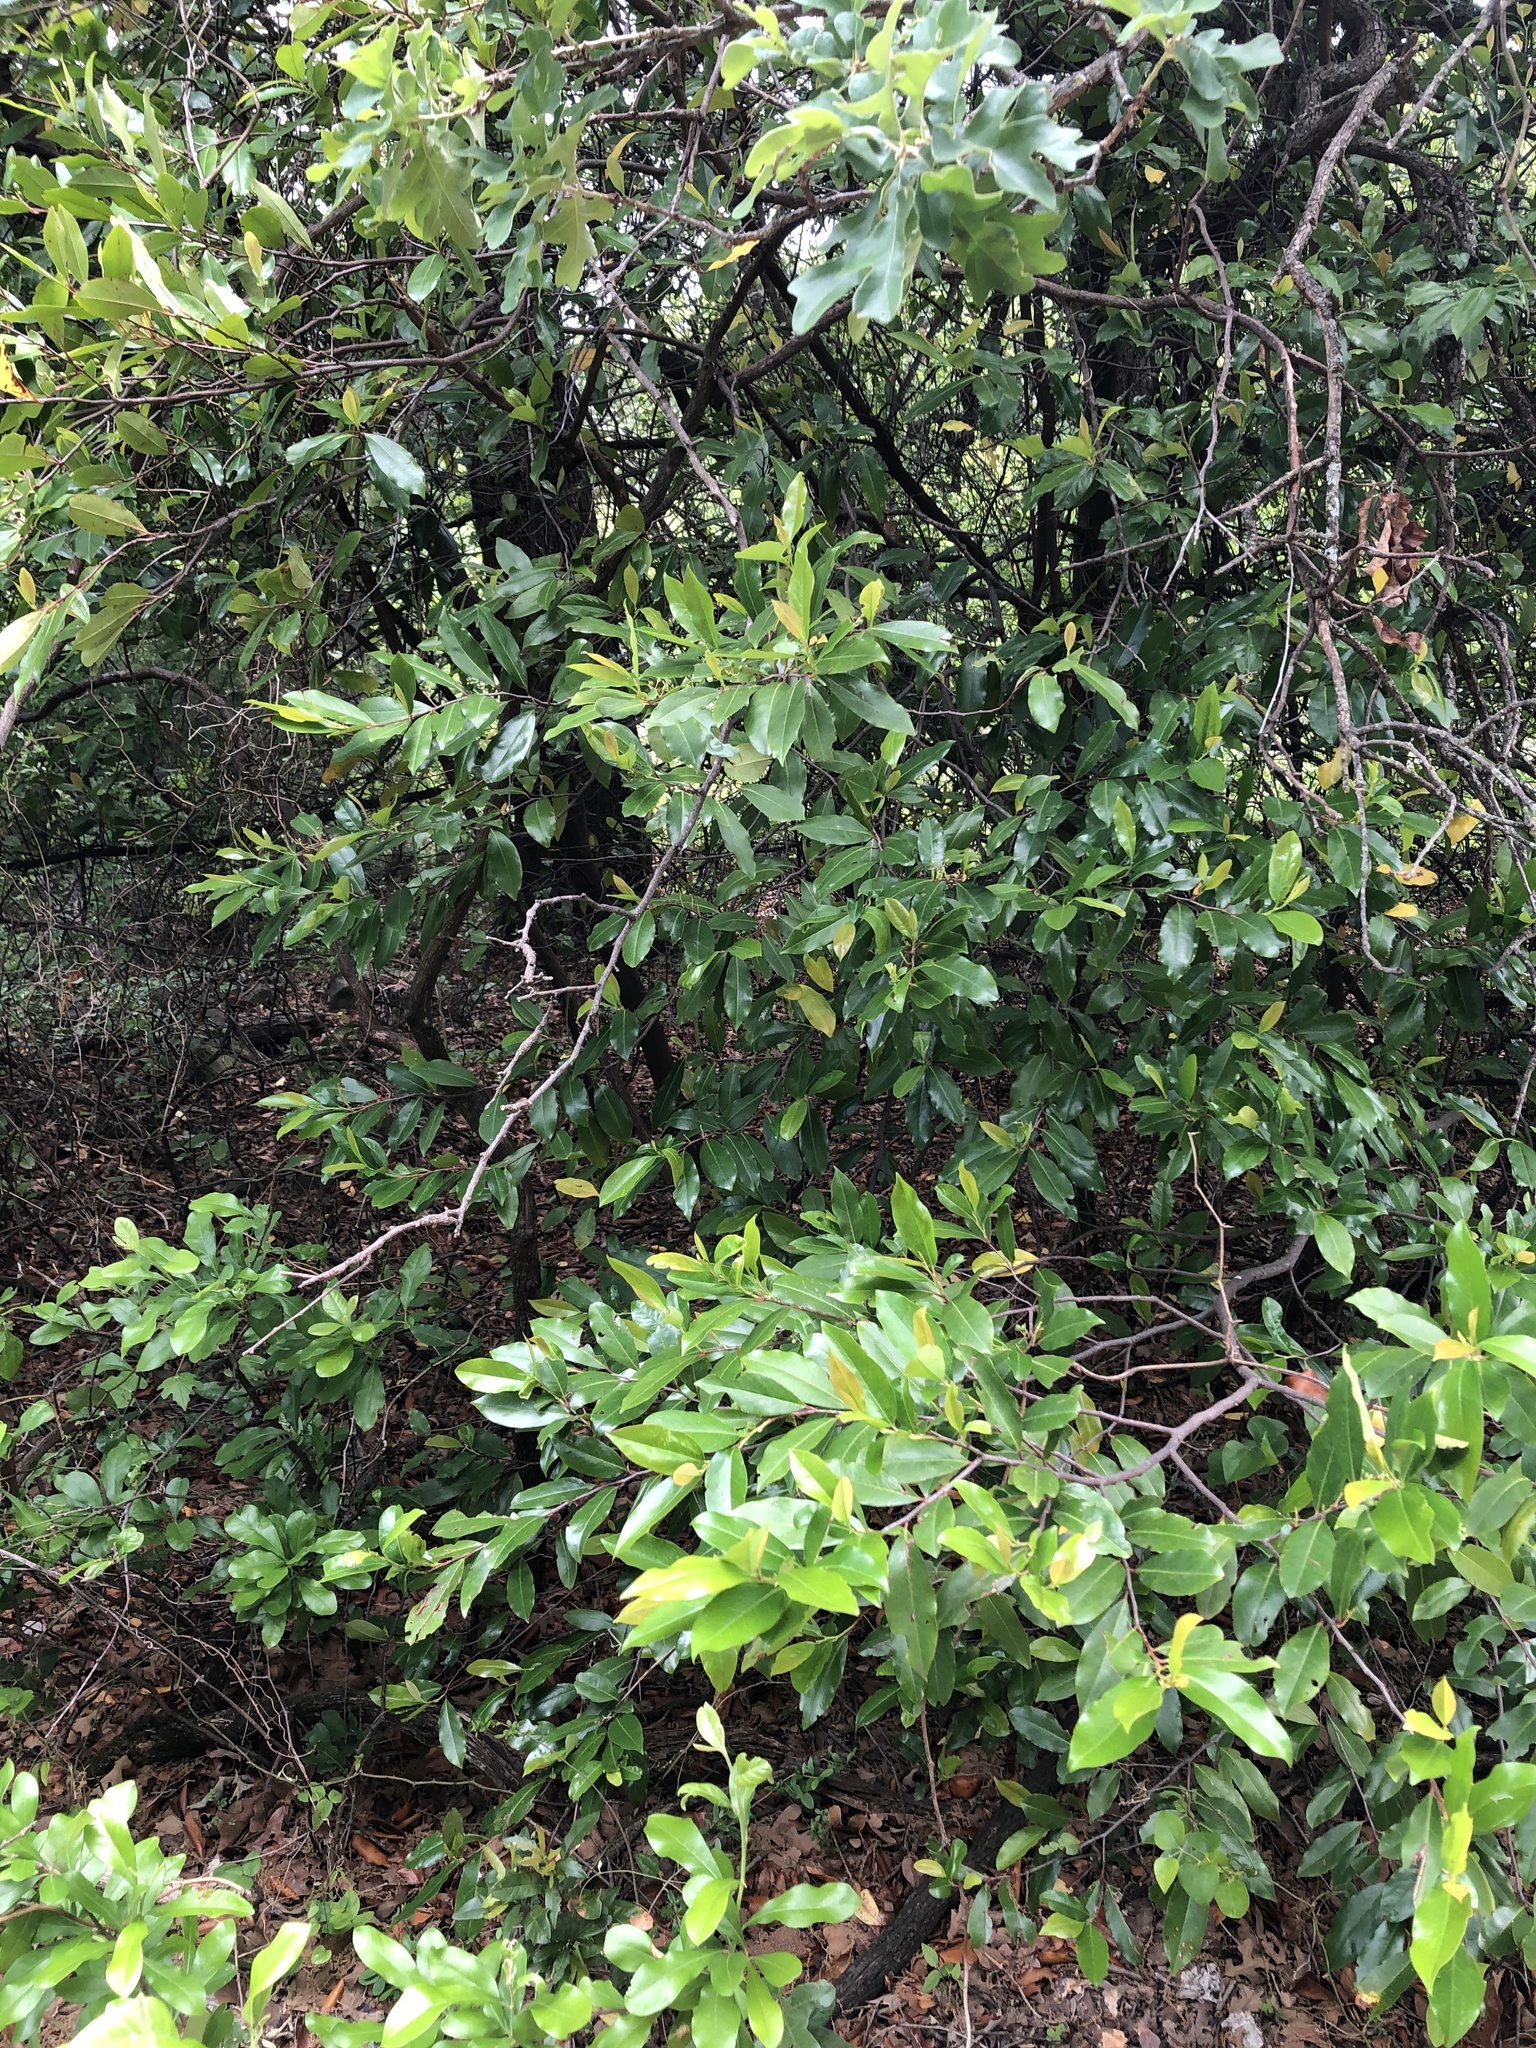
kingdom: Plantae
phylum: Tracheophyta
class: Magnoliopsida
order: Rosales
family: Rosaceae
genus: Prunus
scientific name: Prunus caroliniana
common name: Carolina laurel cherry
